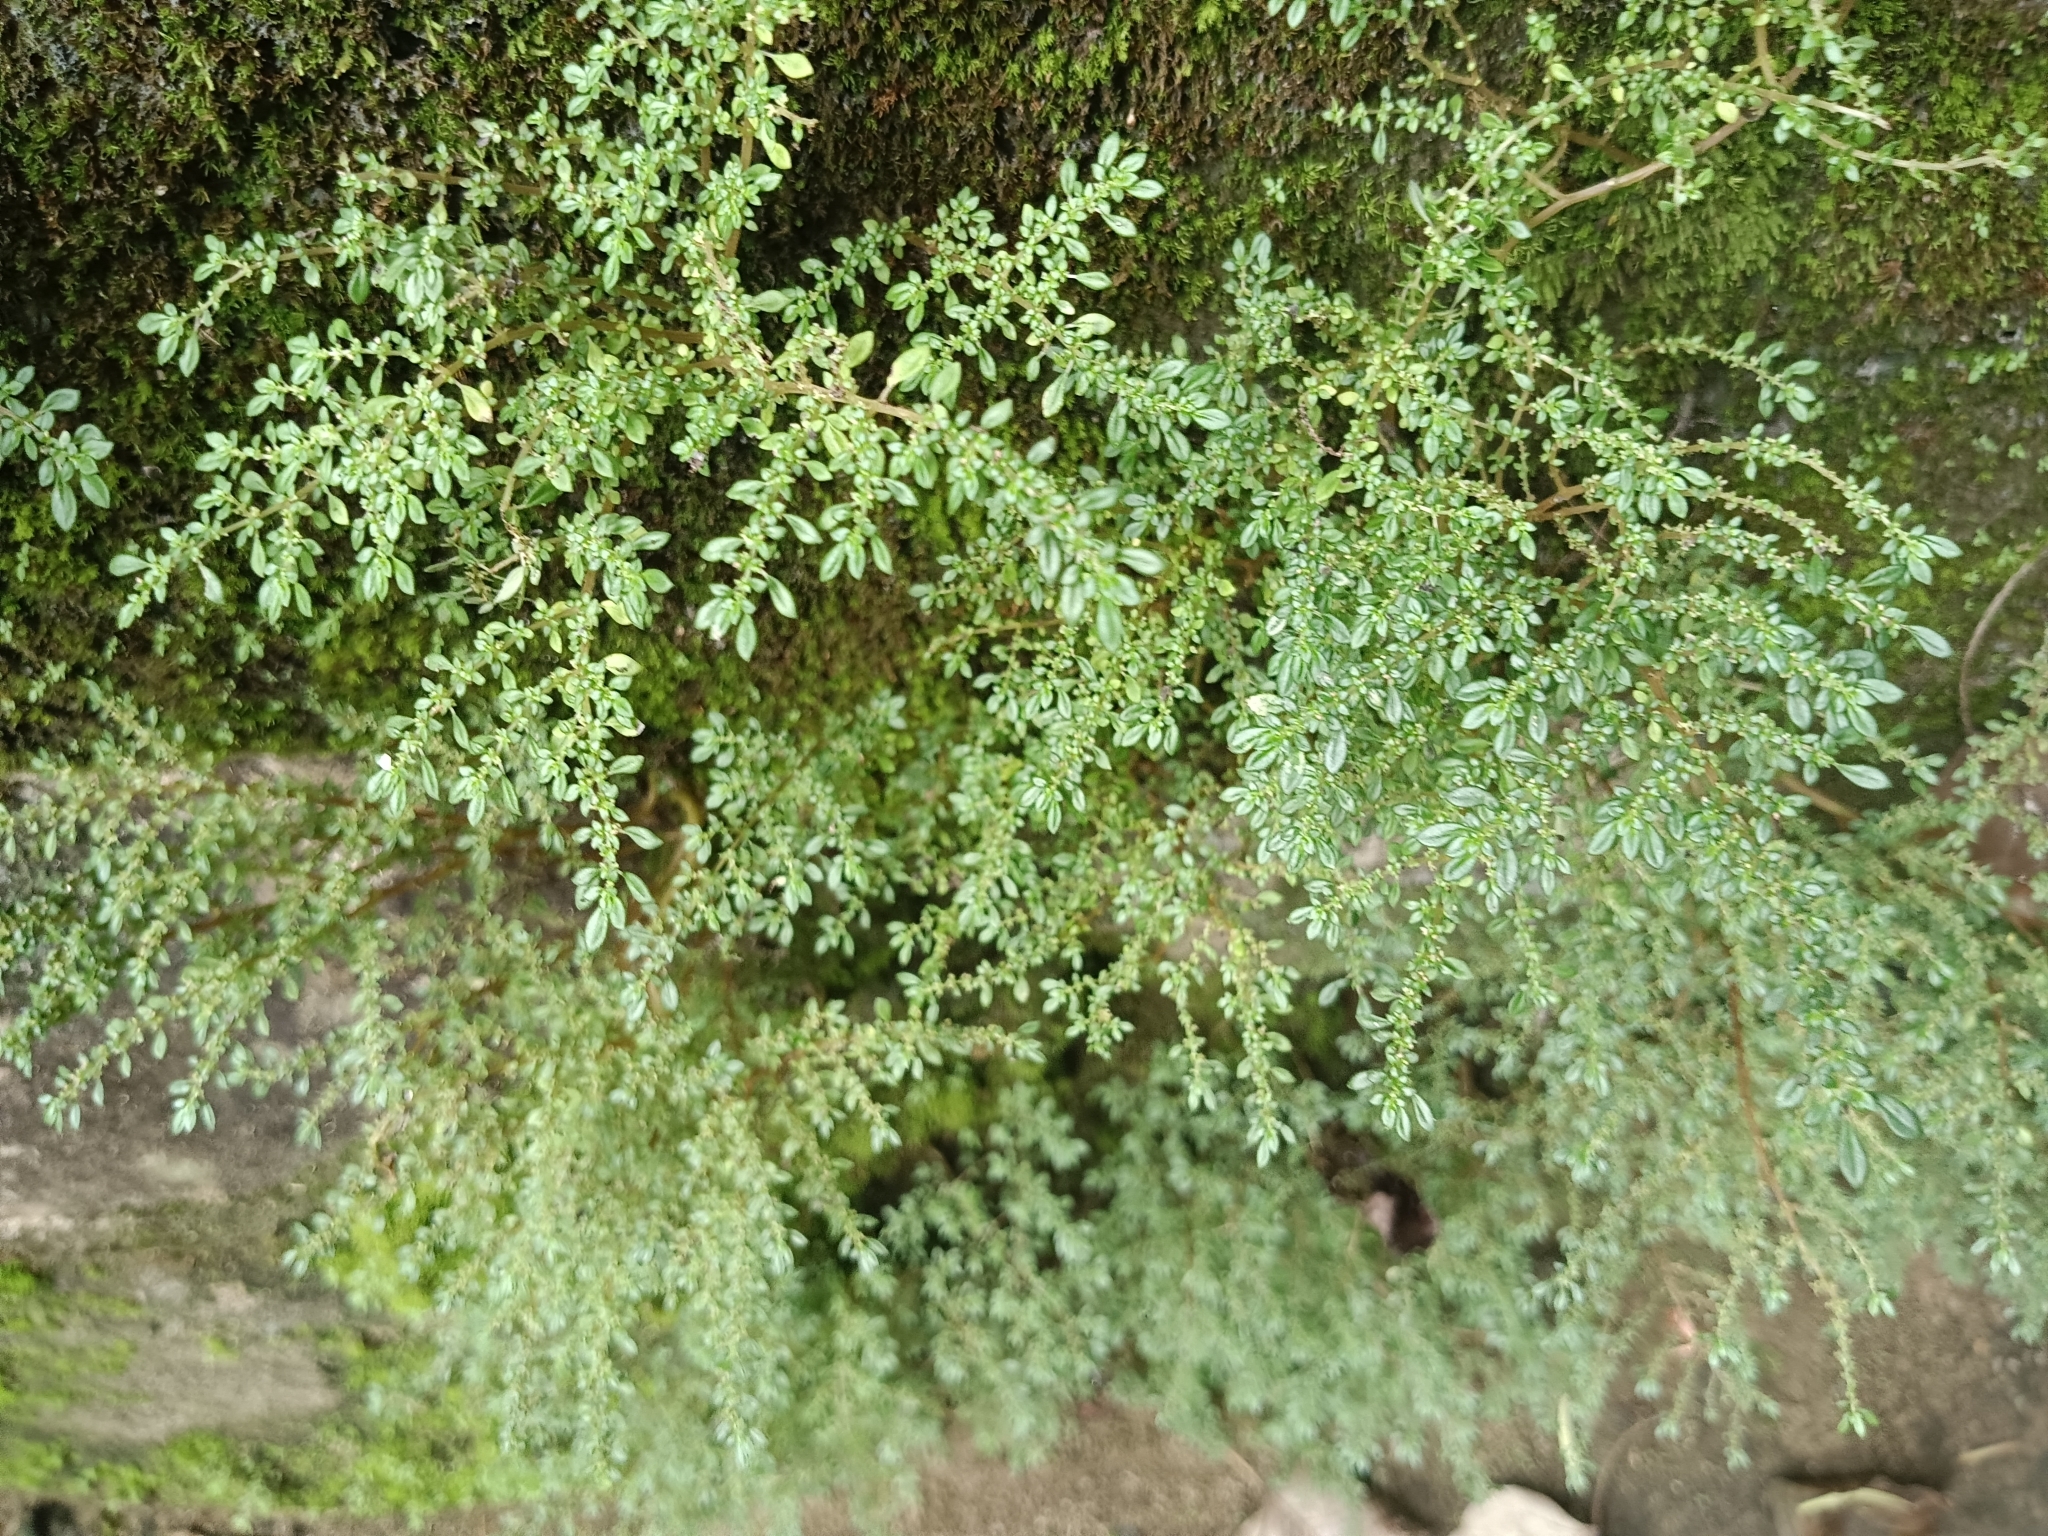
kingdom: Plantae
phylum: Tracheophyta
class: Magnoliopsida
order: Rosales
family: Urticaceae
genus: Pilea
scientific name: Pilea microphylla
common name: Artillery-plant
